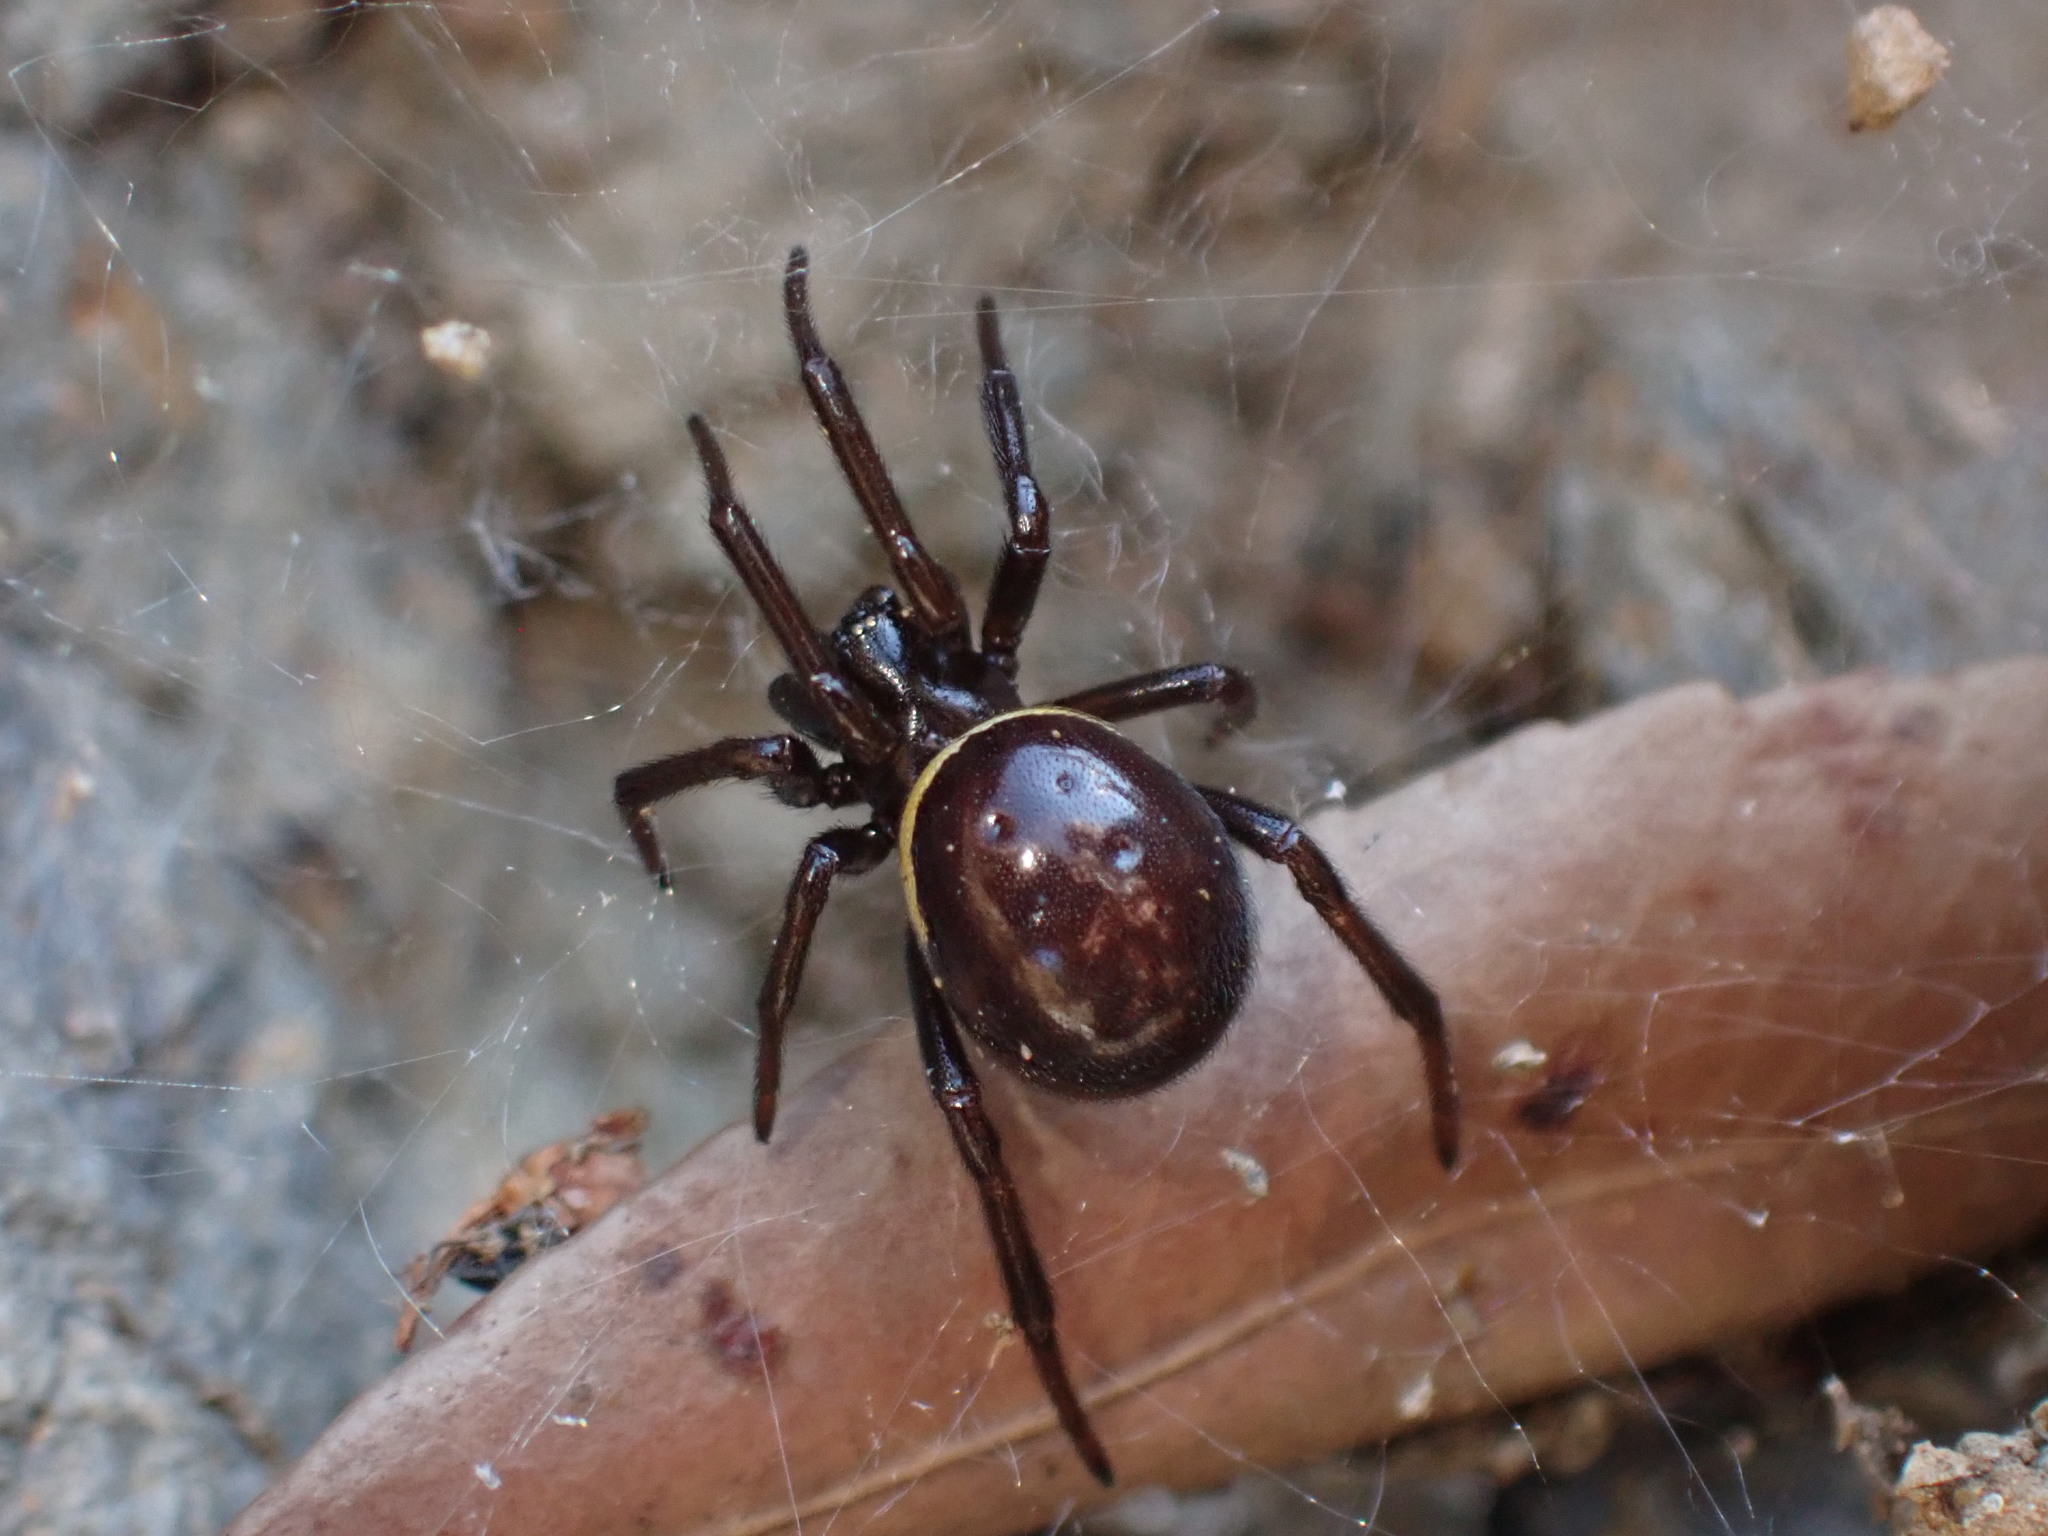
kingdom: Animalia
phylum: Arthropoda
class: Arachnida
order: Araneae
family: Theridiidae
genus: Steatoda
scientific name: Steatoda paykulliana
